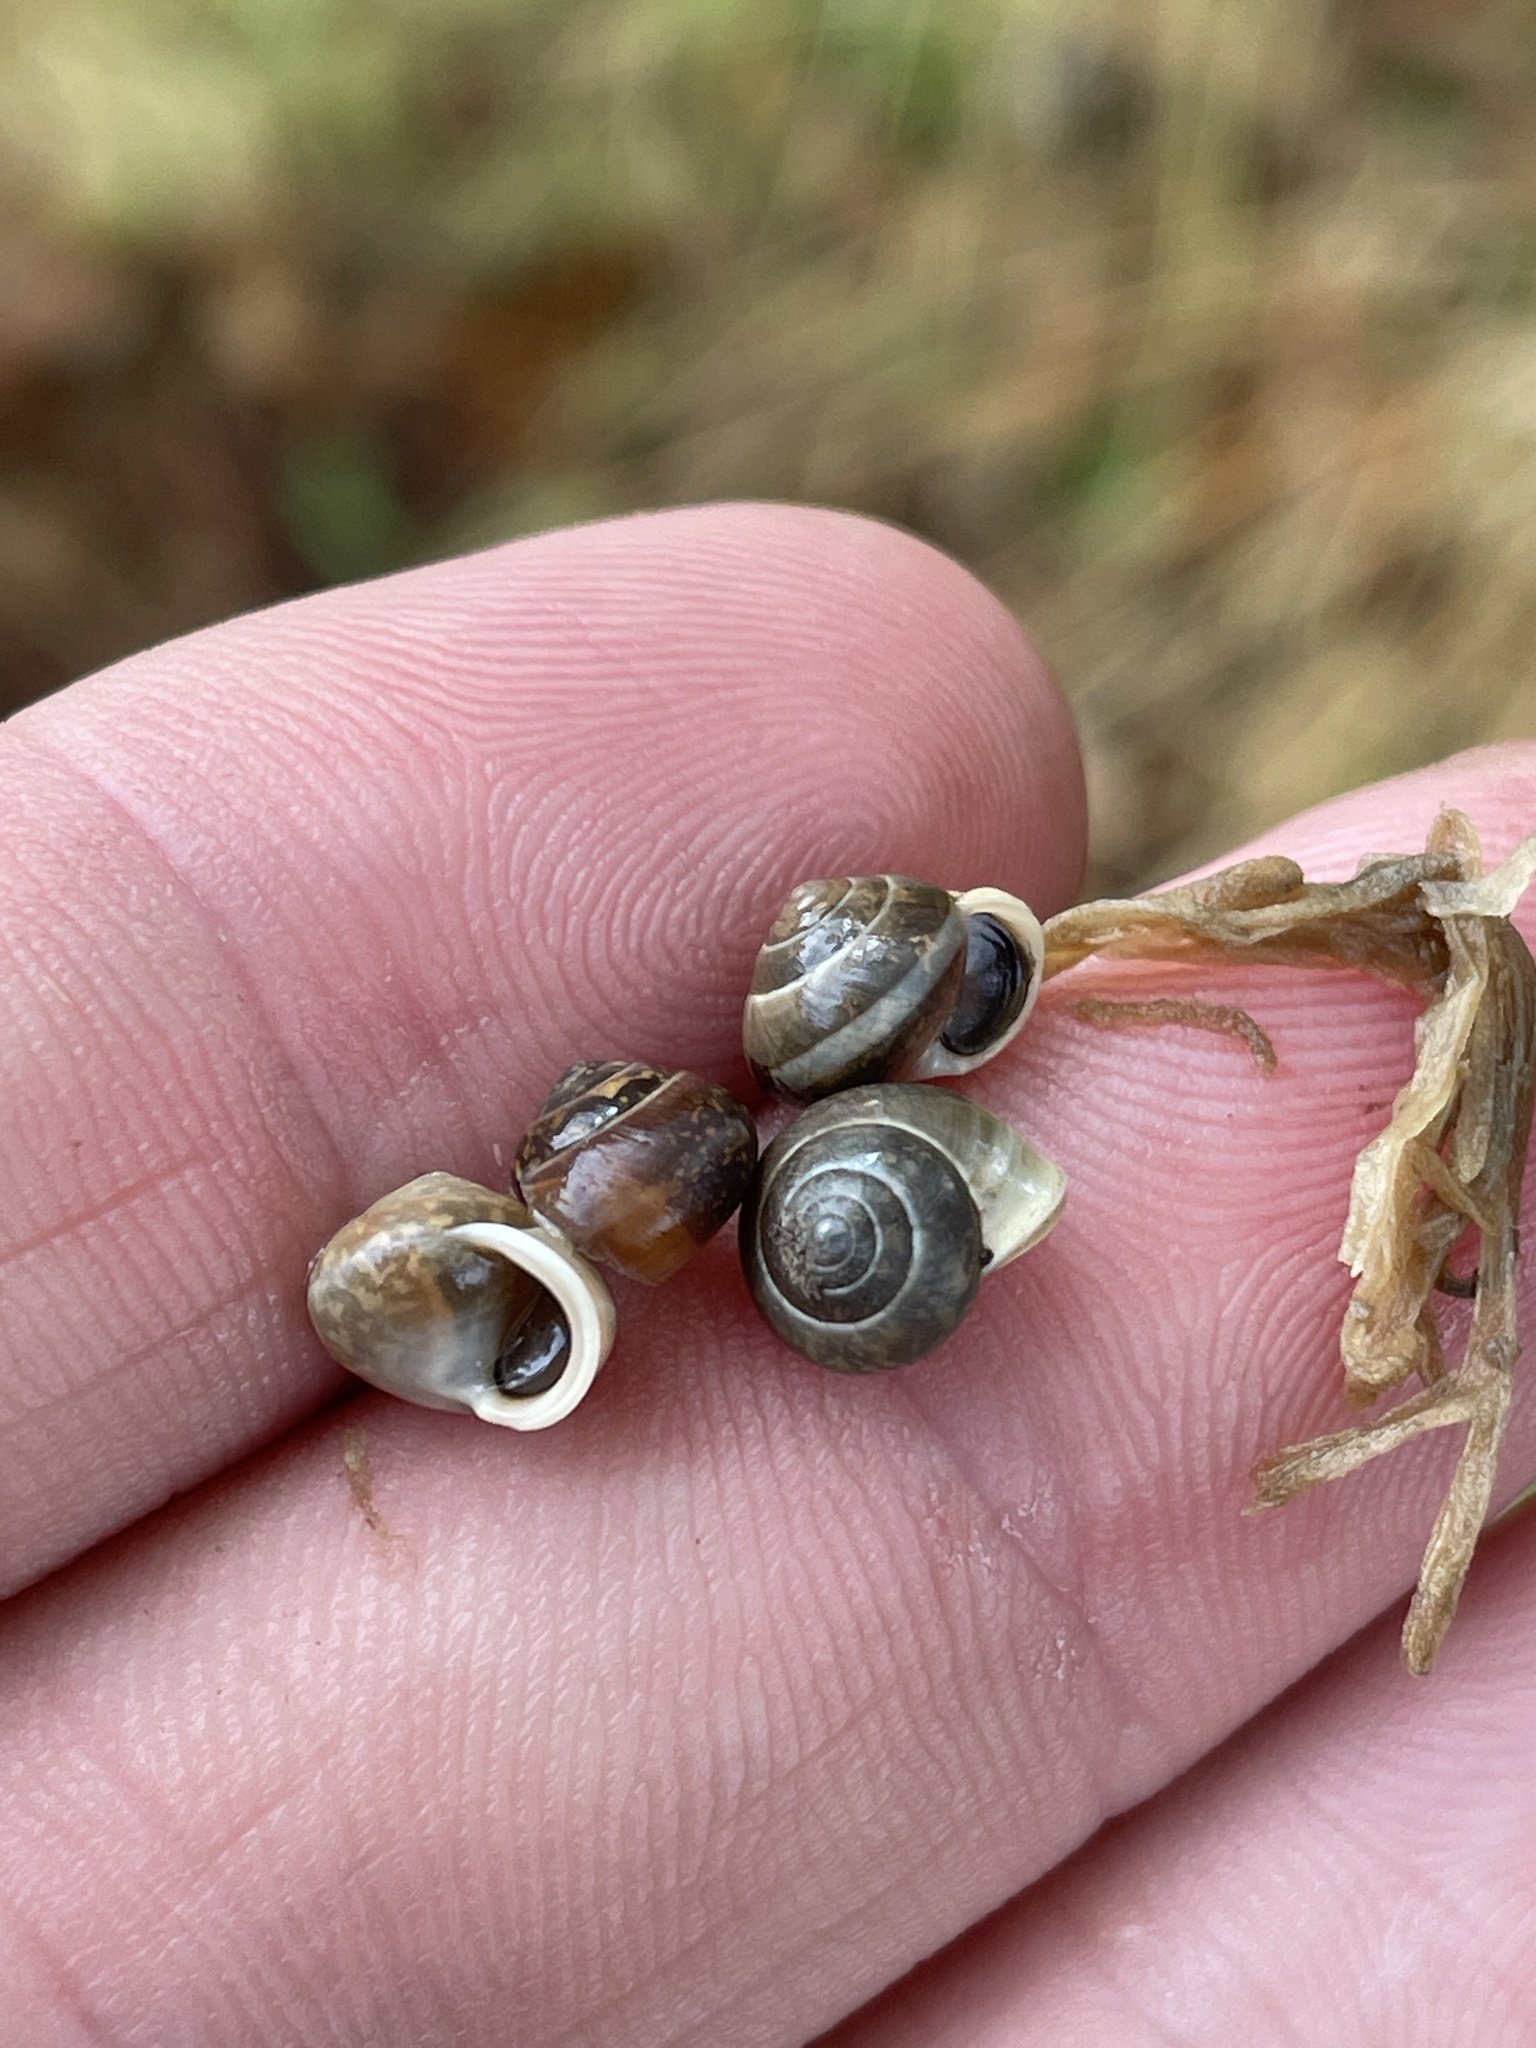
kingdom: Animalia
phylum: Mollusca
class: Gastropoda
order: Cycloneritida
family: Helicinidae
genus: Helicina
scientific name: Helicina orbiculata
